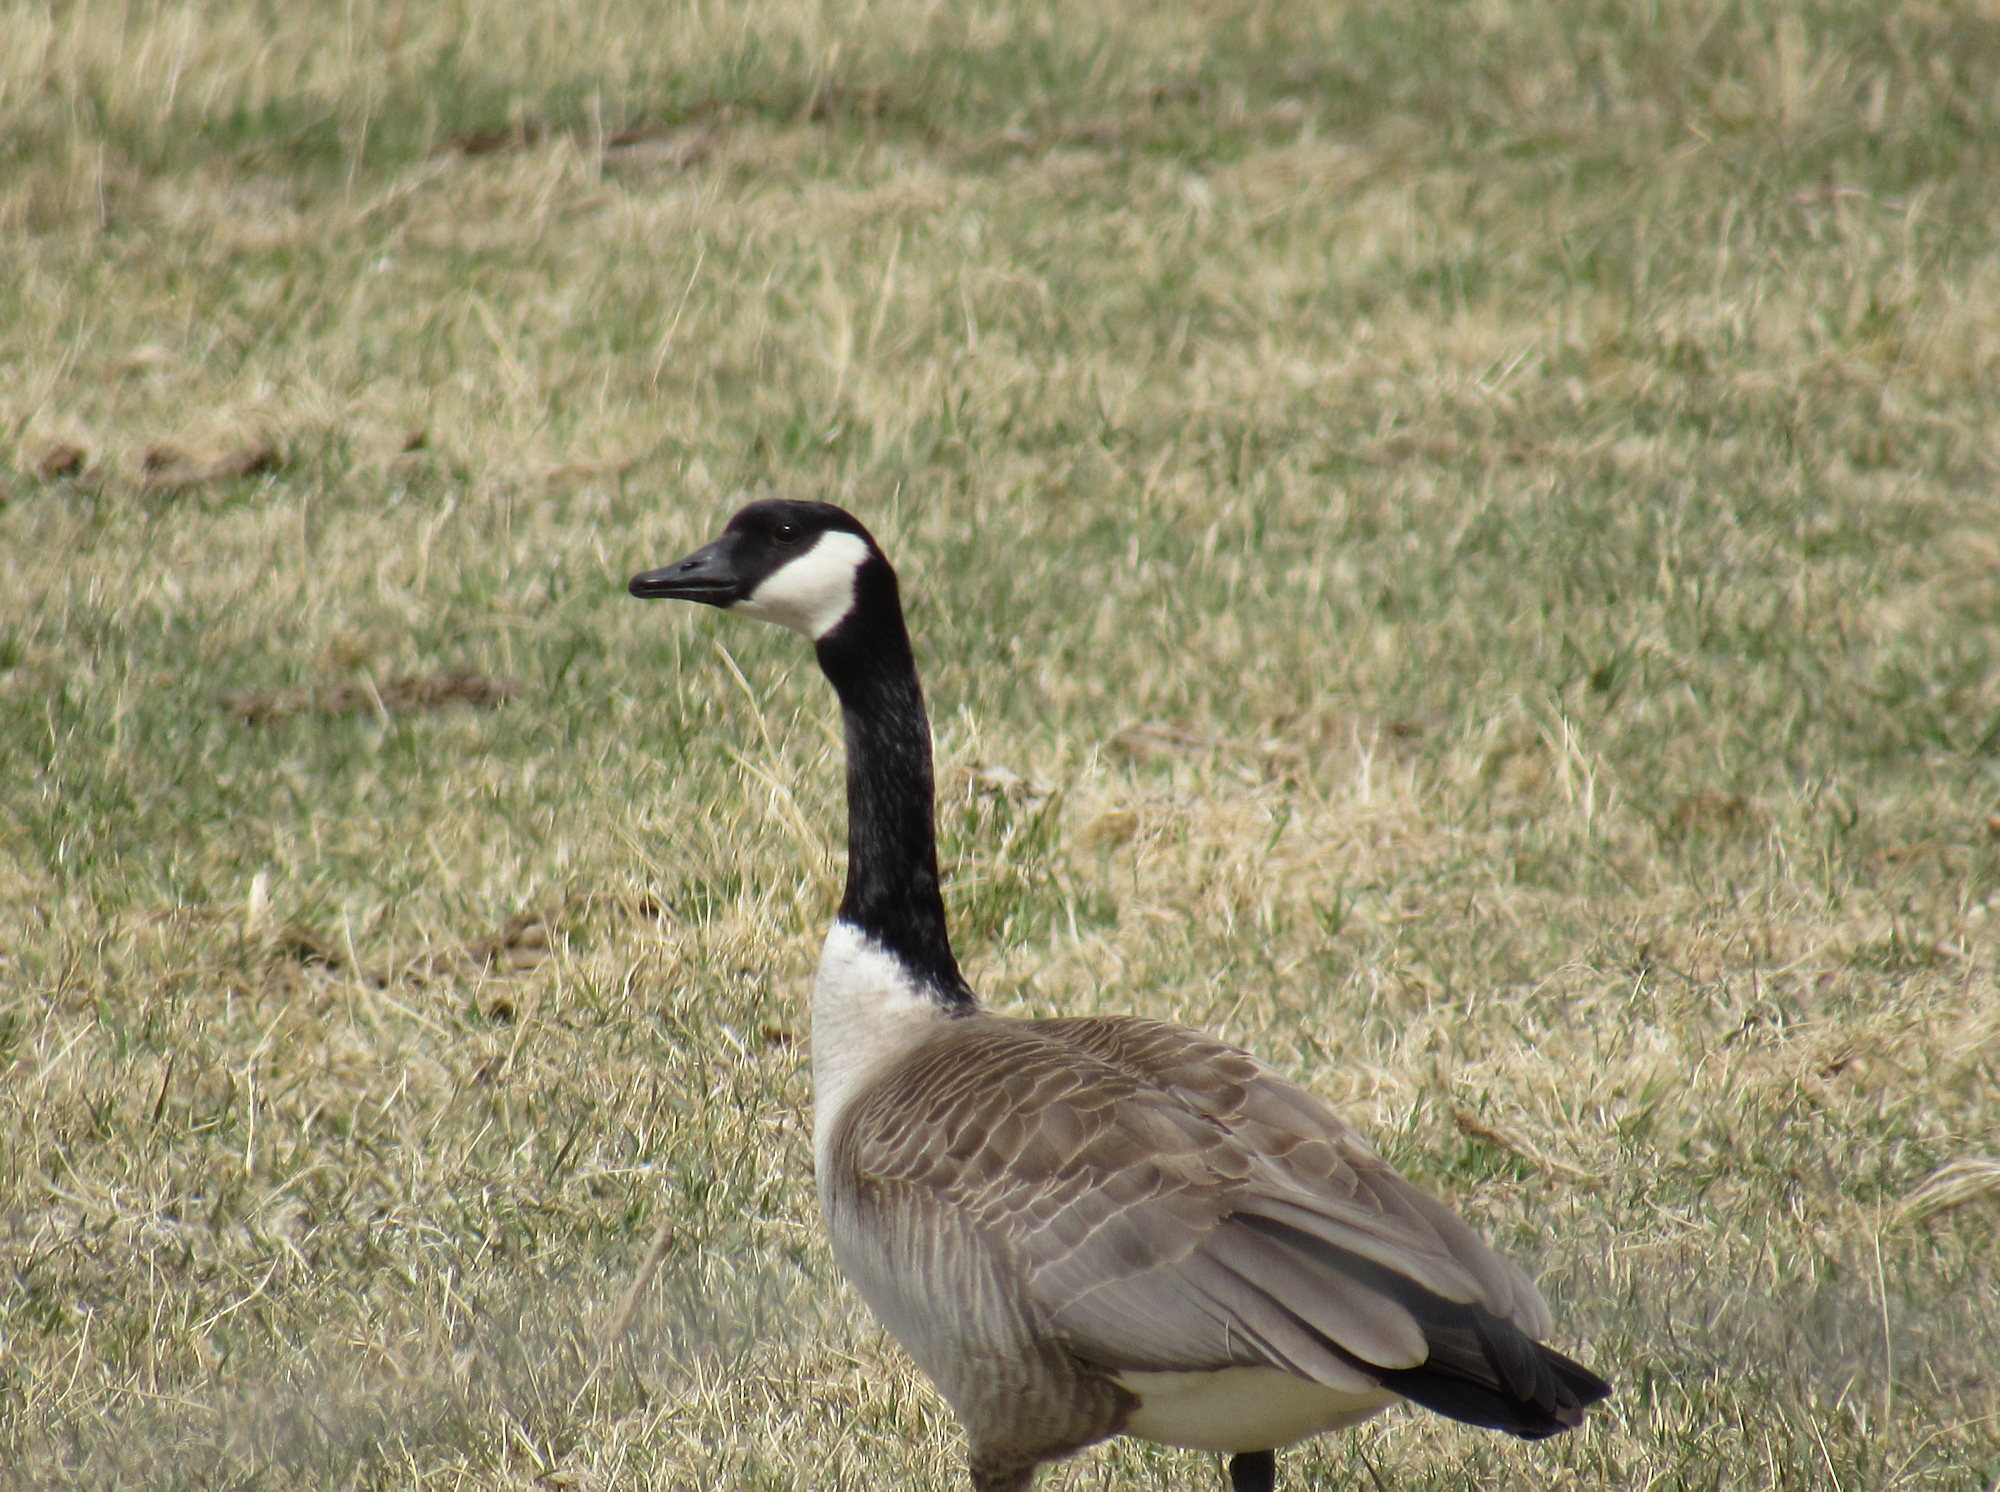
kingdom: Animalia
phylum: Chordata
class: Aves
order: Anseriformes
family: Anatidae
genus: Branta
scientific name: Branta canadensis
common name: Canada goose
